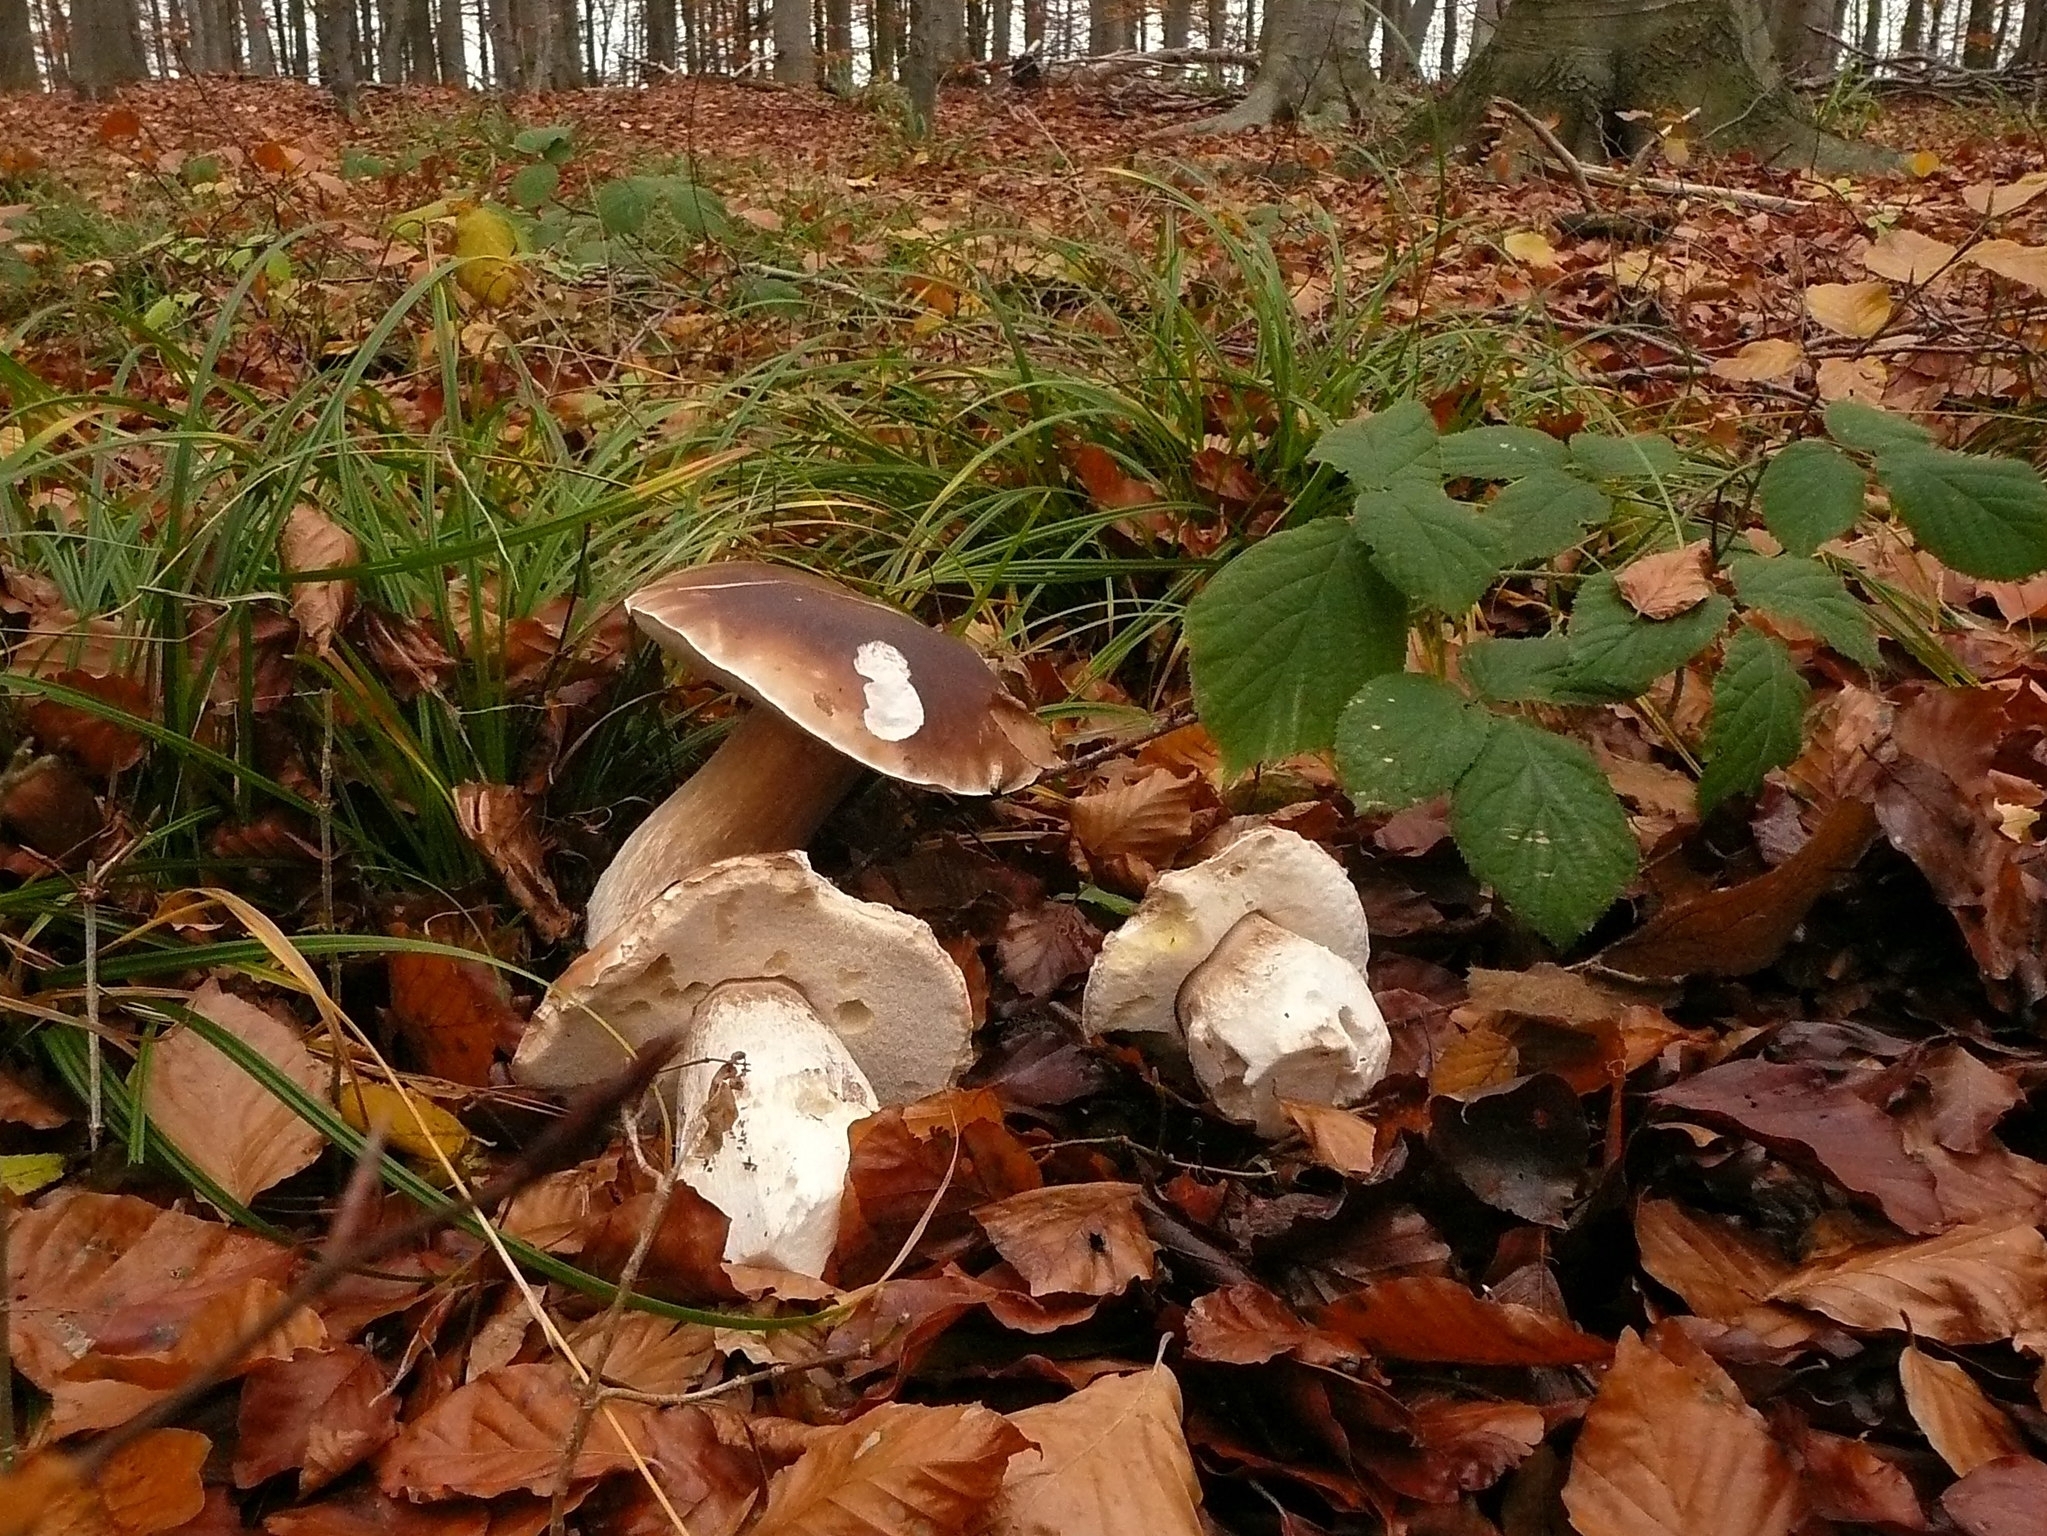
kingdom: Fungi
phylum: Basidiomycota
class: Agaricomycetes
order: Boletales
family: Boletaceae
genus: Boletus
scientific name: Boletus edulis
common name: Cep
